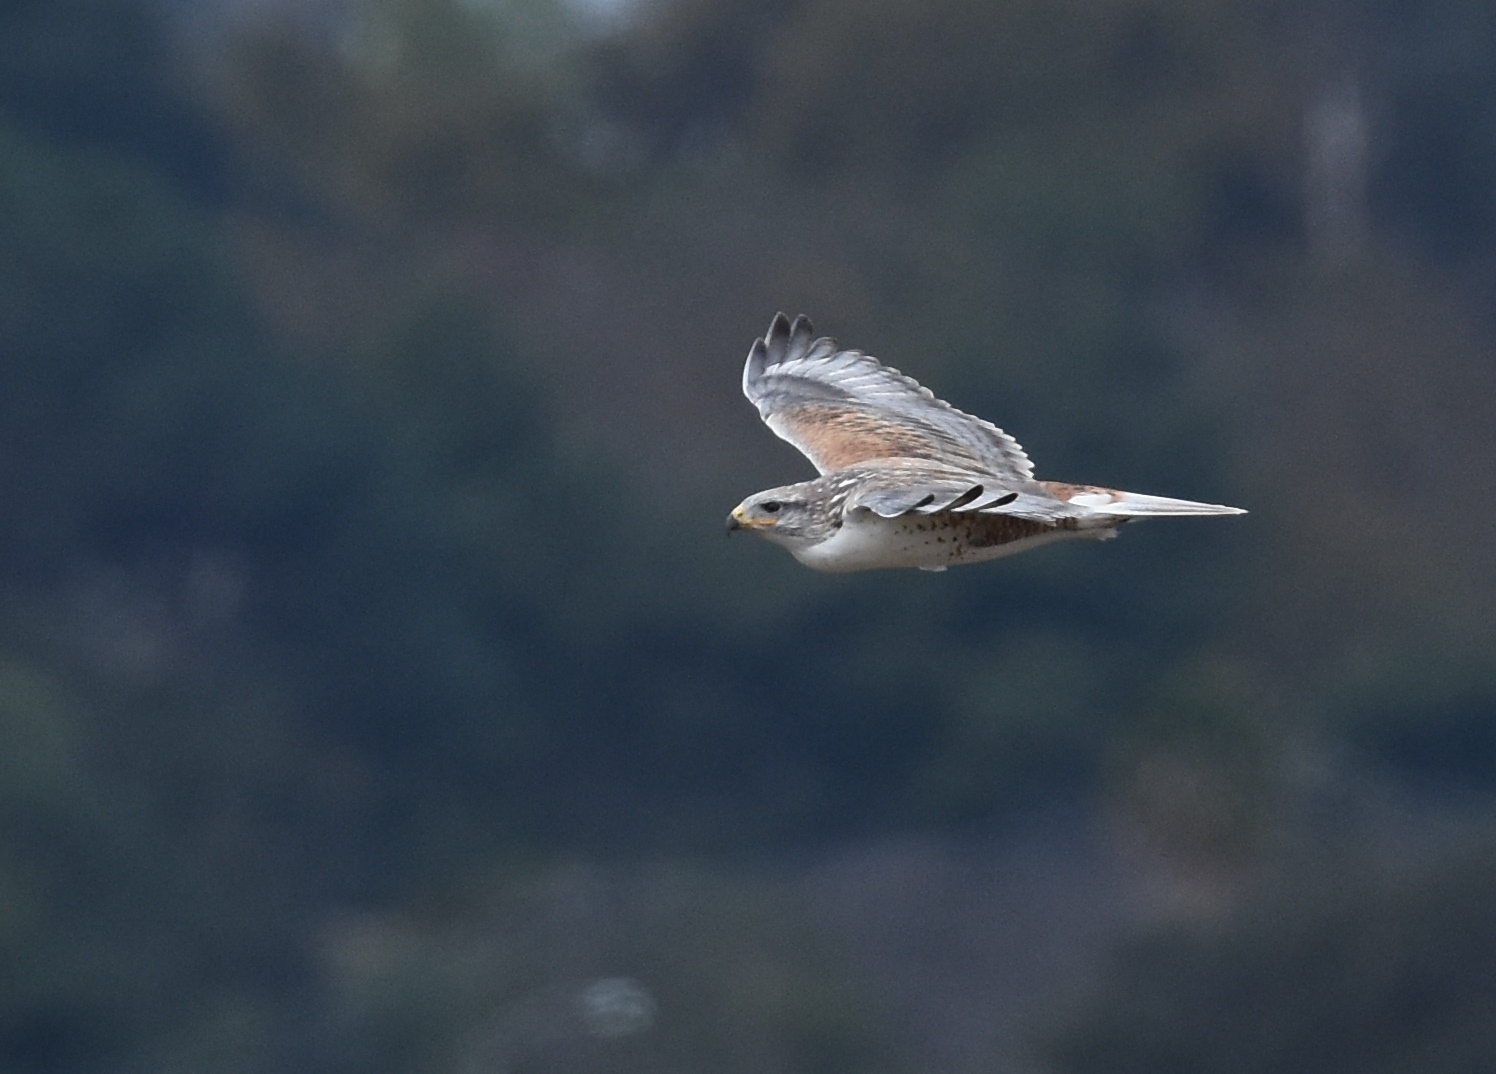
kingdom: Animalia
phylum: Chordata
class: Aves
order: Accipitriformes
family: Accipitridae
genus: Buteo
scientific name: Buteo regalis
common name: Ferruginous hawk
